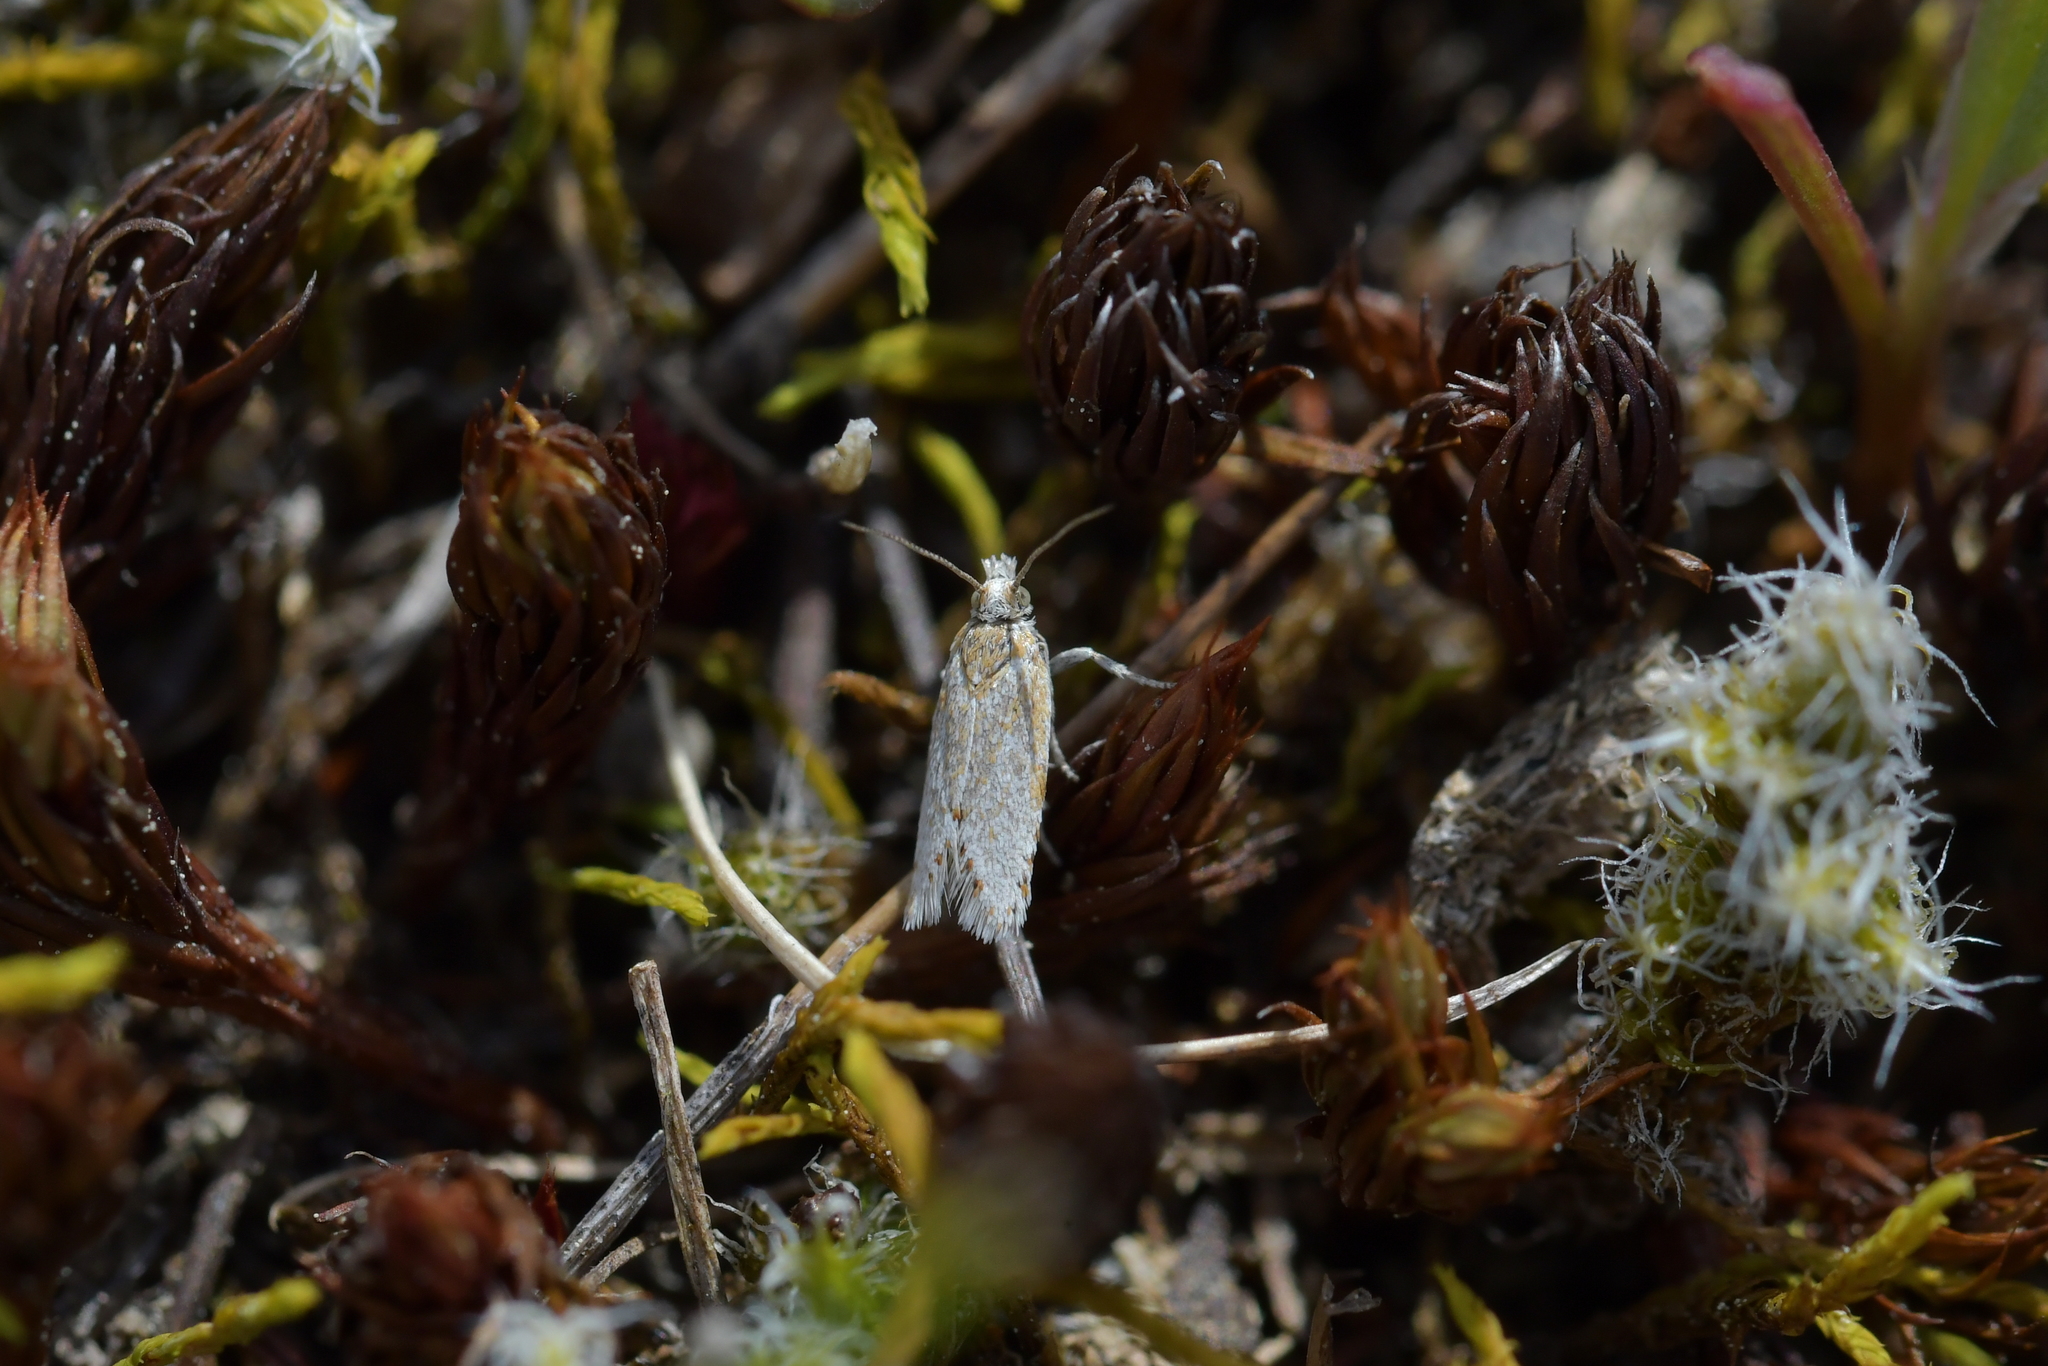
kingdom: Animalia
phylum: Arthropoda
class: Insecta
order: Lepidoptera
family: Tortricidae
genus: Eurythecta
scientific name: Eurythecta robusta
